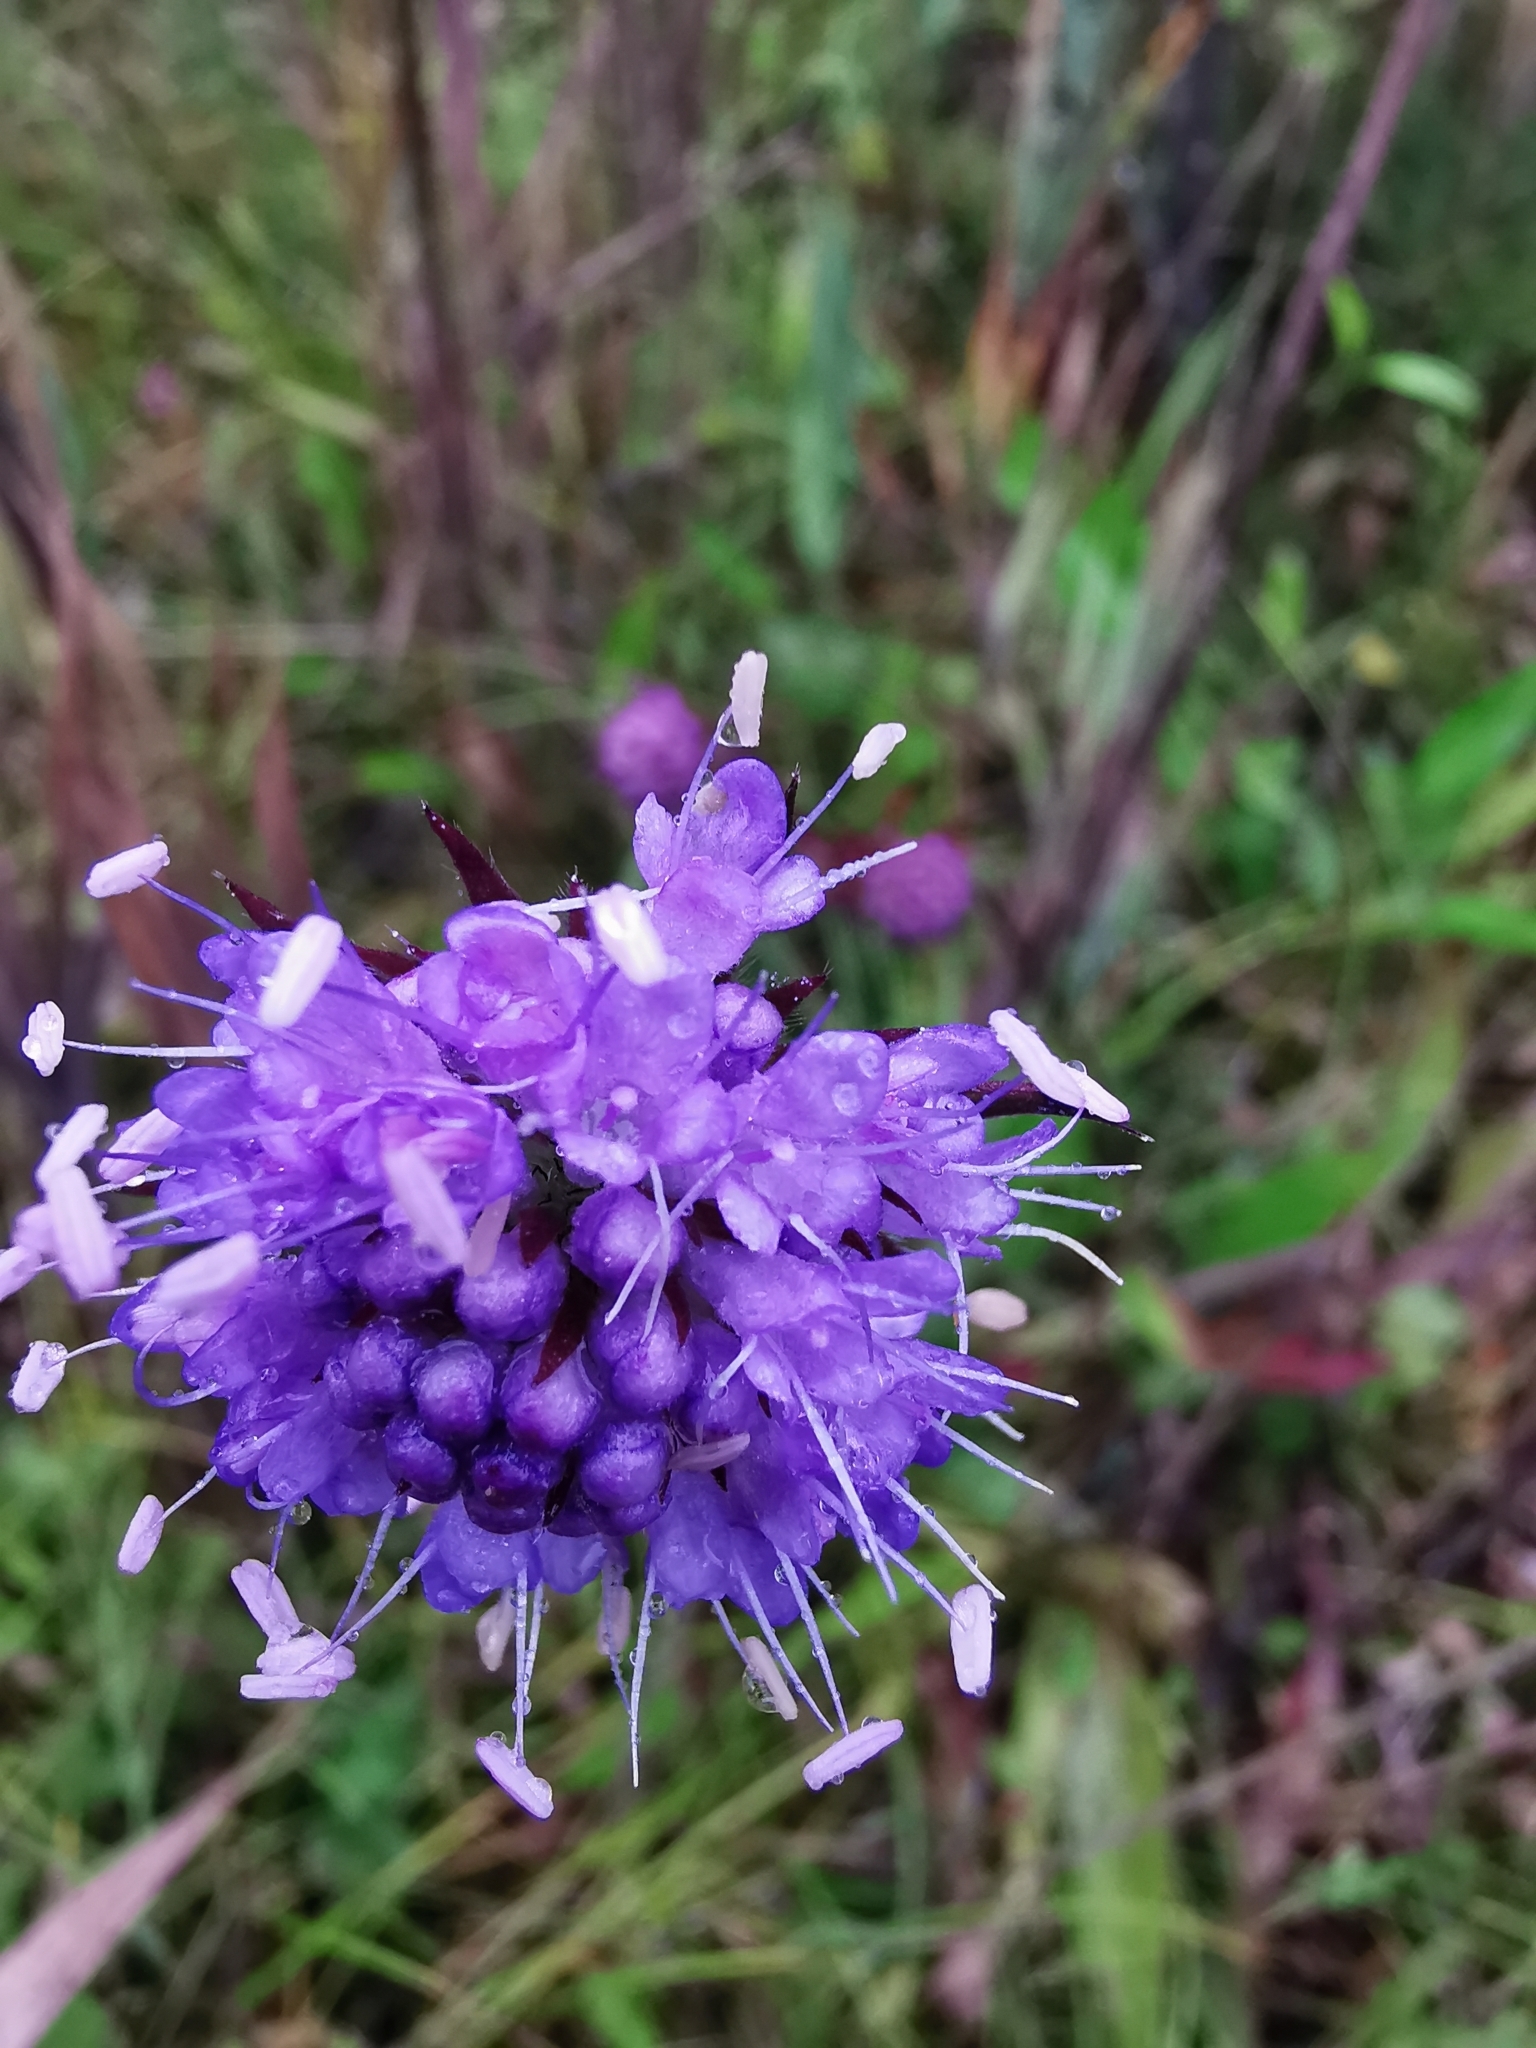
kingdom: Plantae
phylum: Tracheophyta
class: Magnoliopsida
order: Dipsacales
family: Caprifoliaceae
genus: Succisa
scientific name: Succisa pratensis
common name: Devil's-bit
